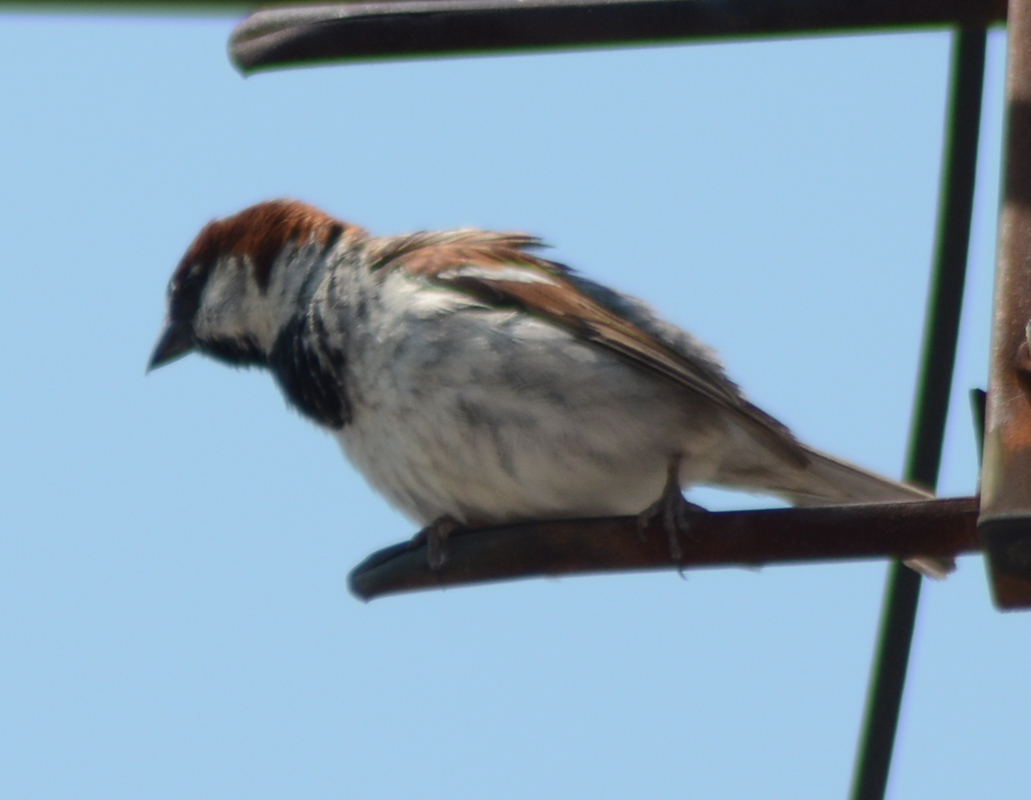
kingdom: Animalia
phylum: Chordata
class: Aves
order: Passeriformes
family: Passeridae
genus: Passer
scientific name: Passer domesticus
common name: House sparrow
